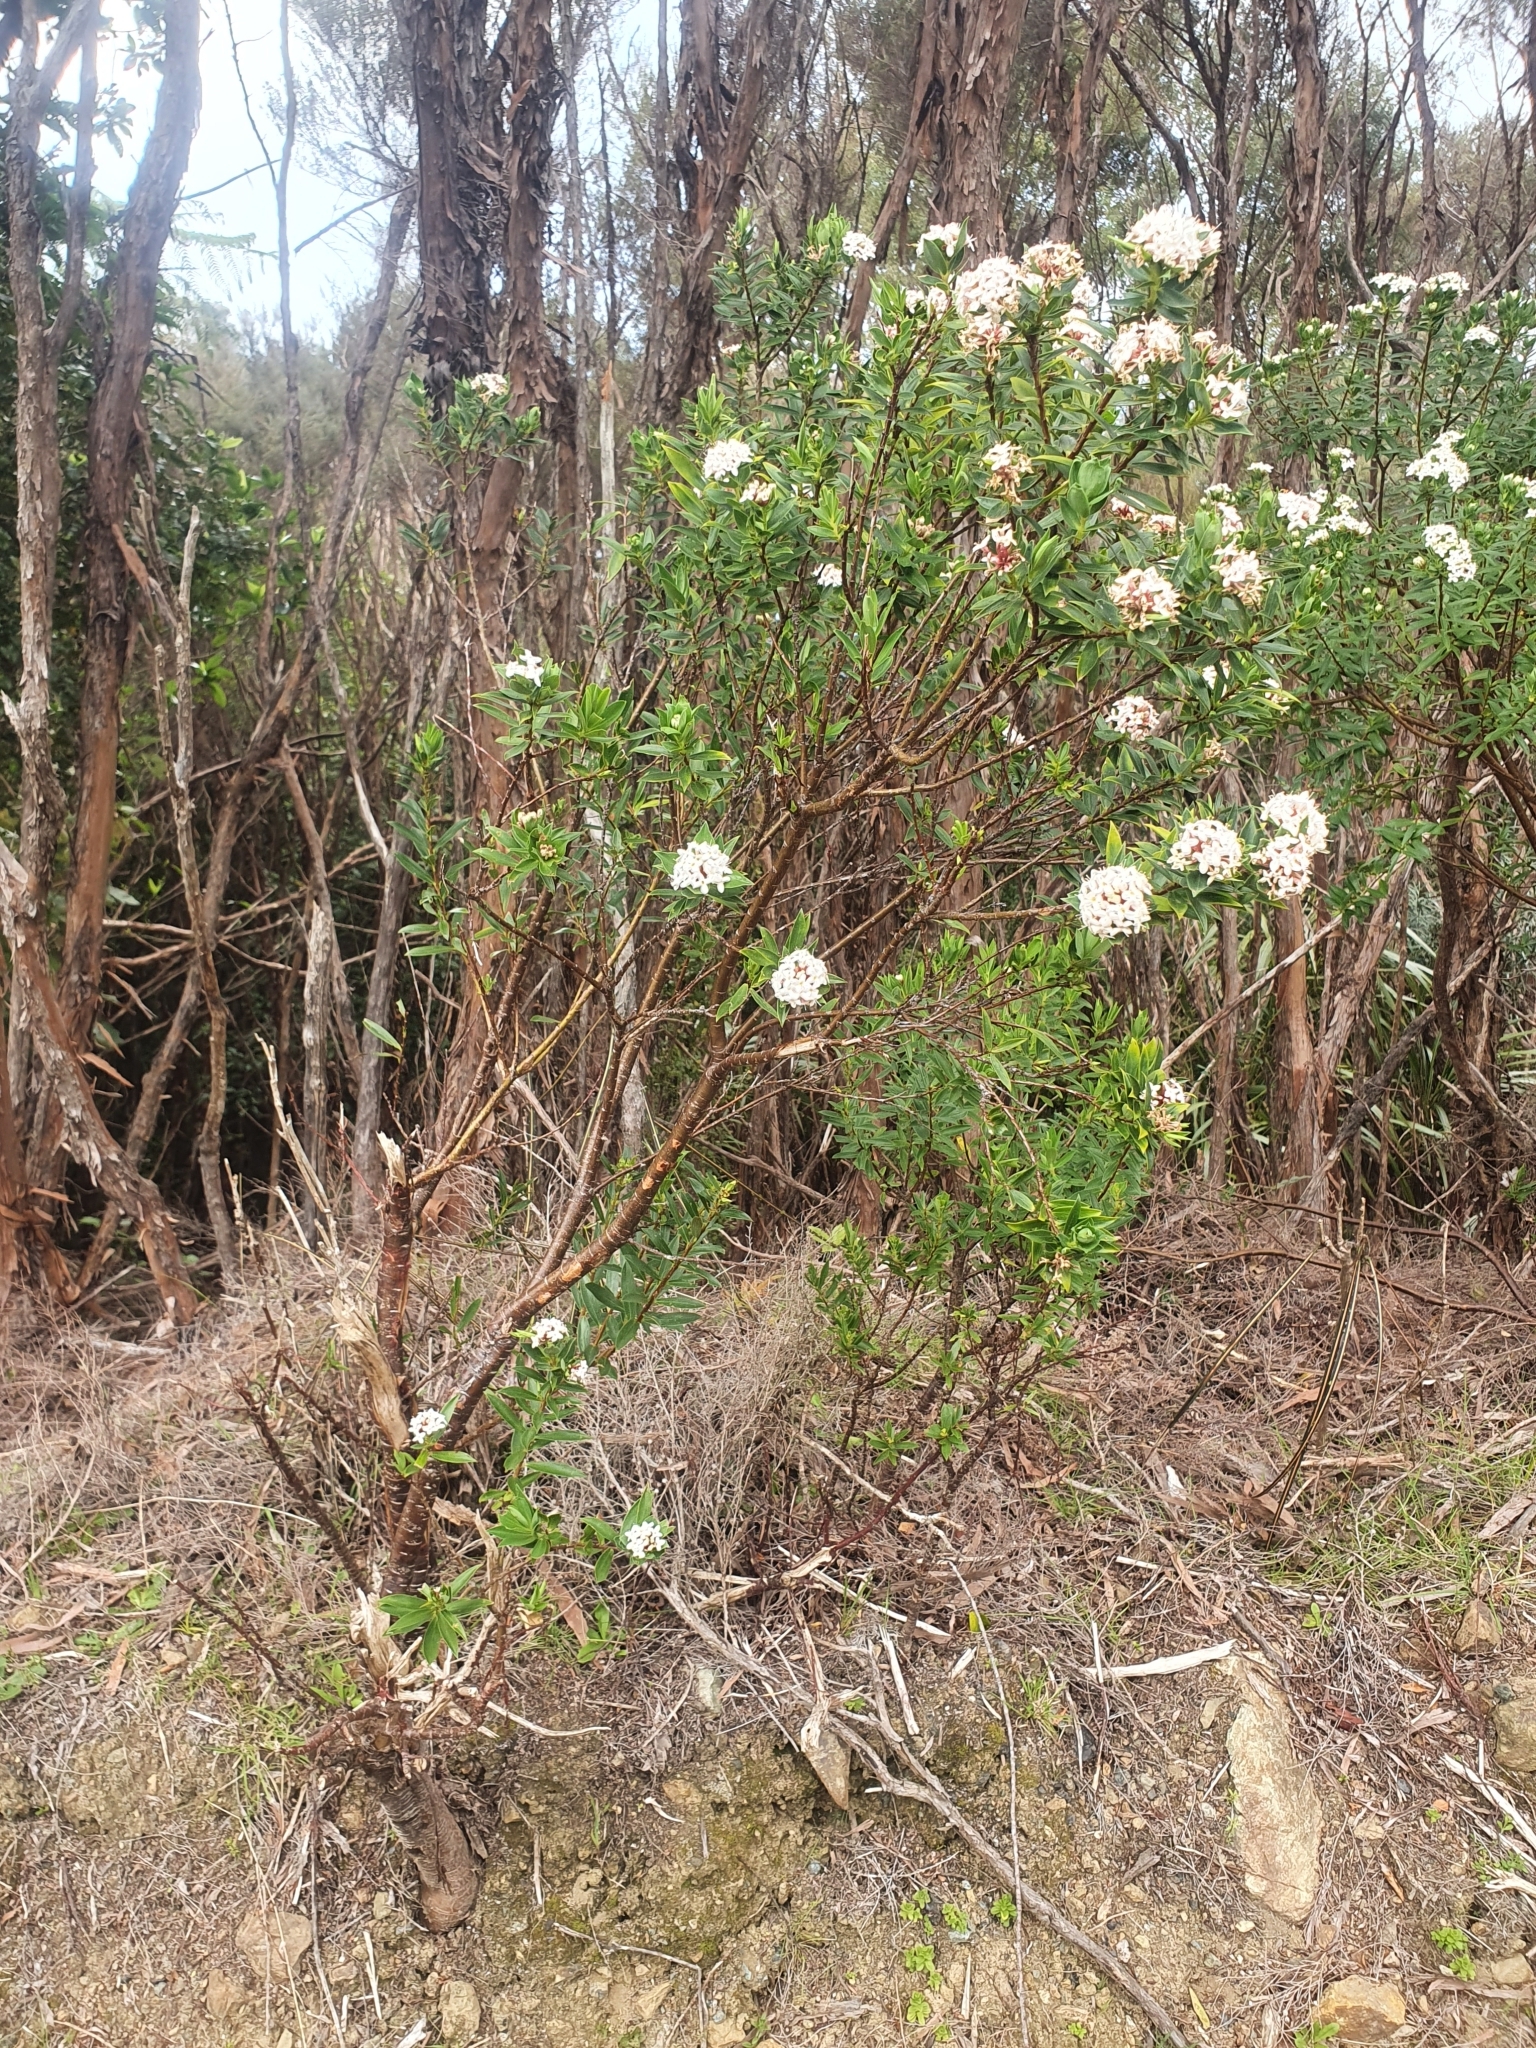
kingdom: Plantae
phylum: Tracheophyta
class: Magnoliopsida
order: Malvales
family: Thymelaeaceae
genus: Pimelea
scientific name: Pimelea longifolia
